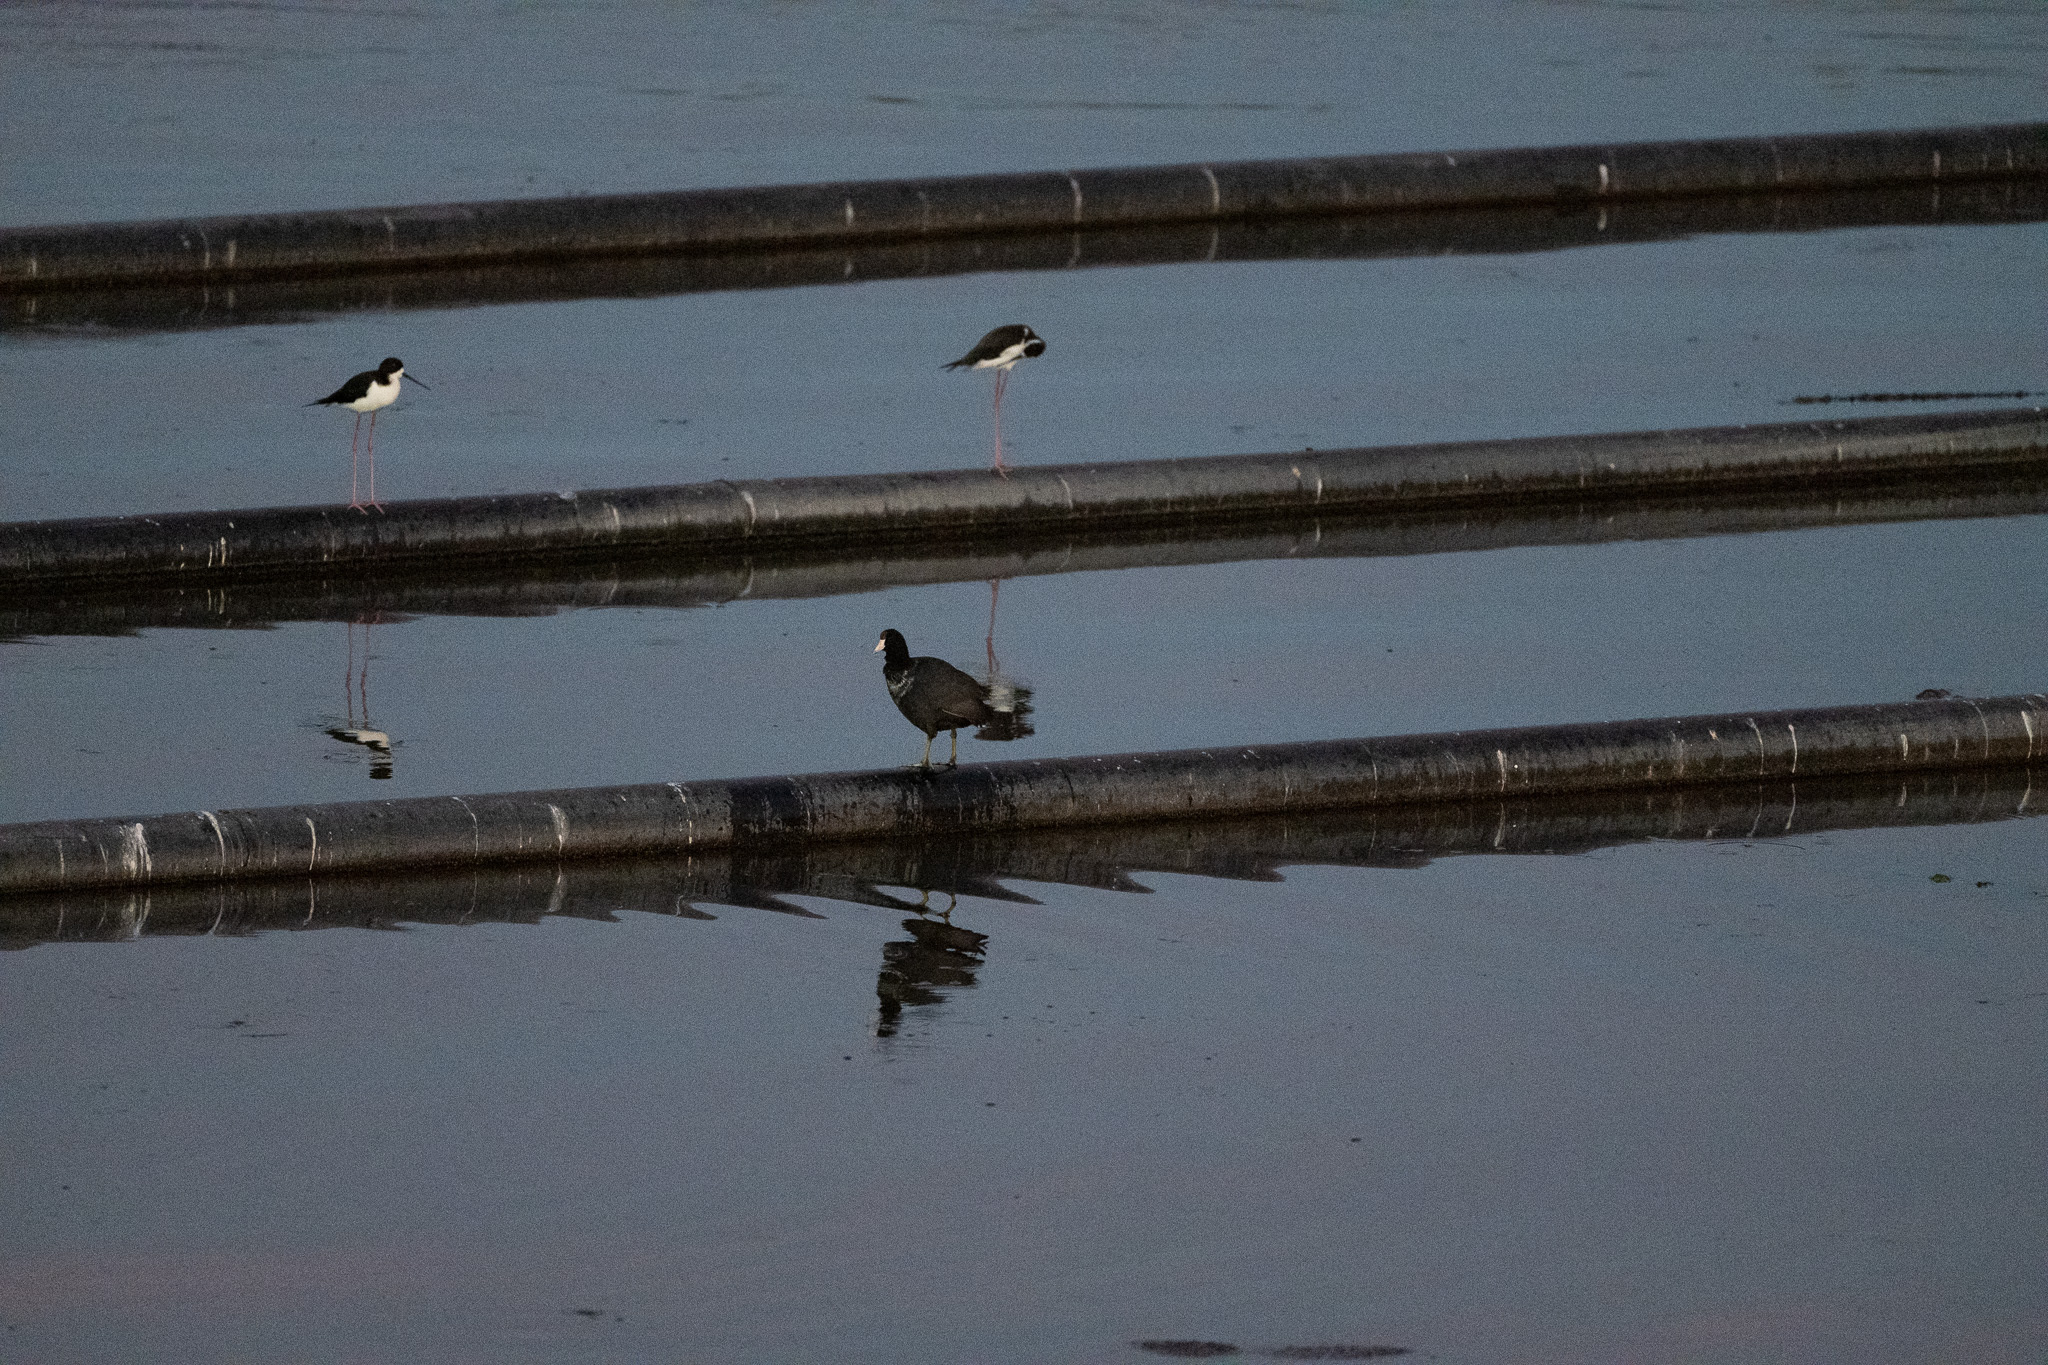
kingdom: Animalia
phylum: Chordata
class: Aves
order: Charadriiformes
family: Recurvirostridae
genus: Himantopus
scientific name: Himantopus mexicanus
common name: Black-necked stilt
